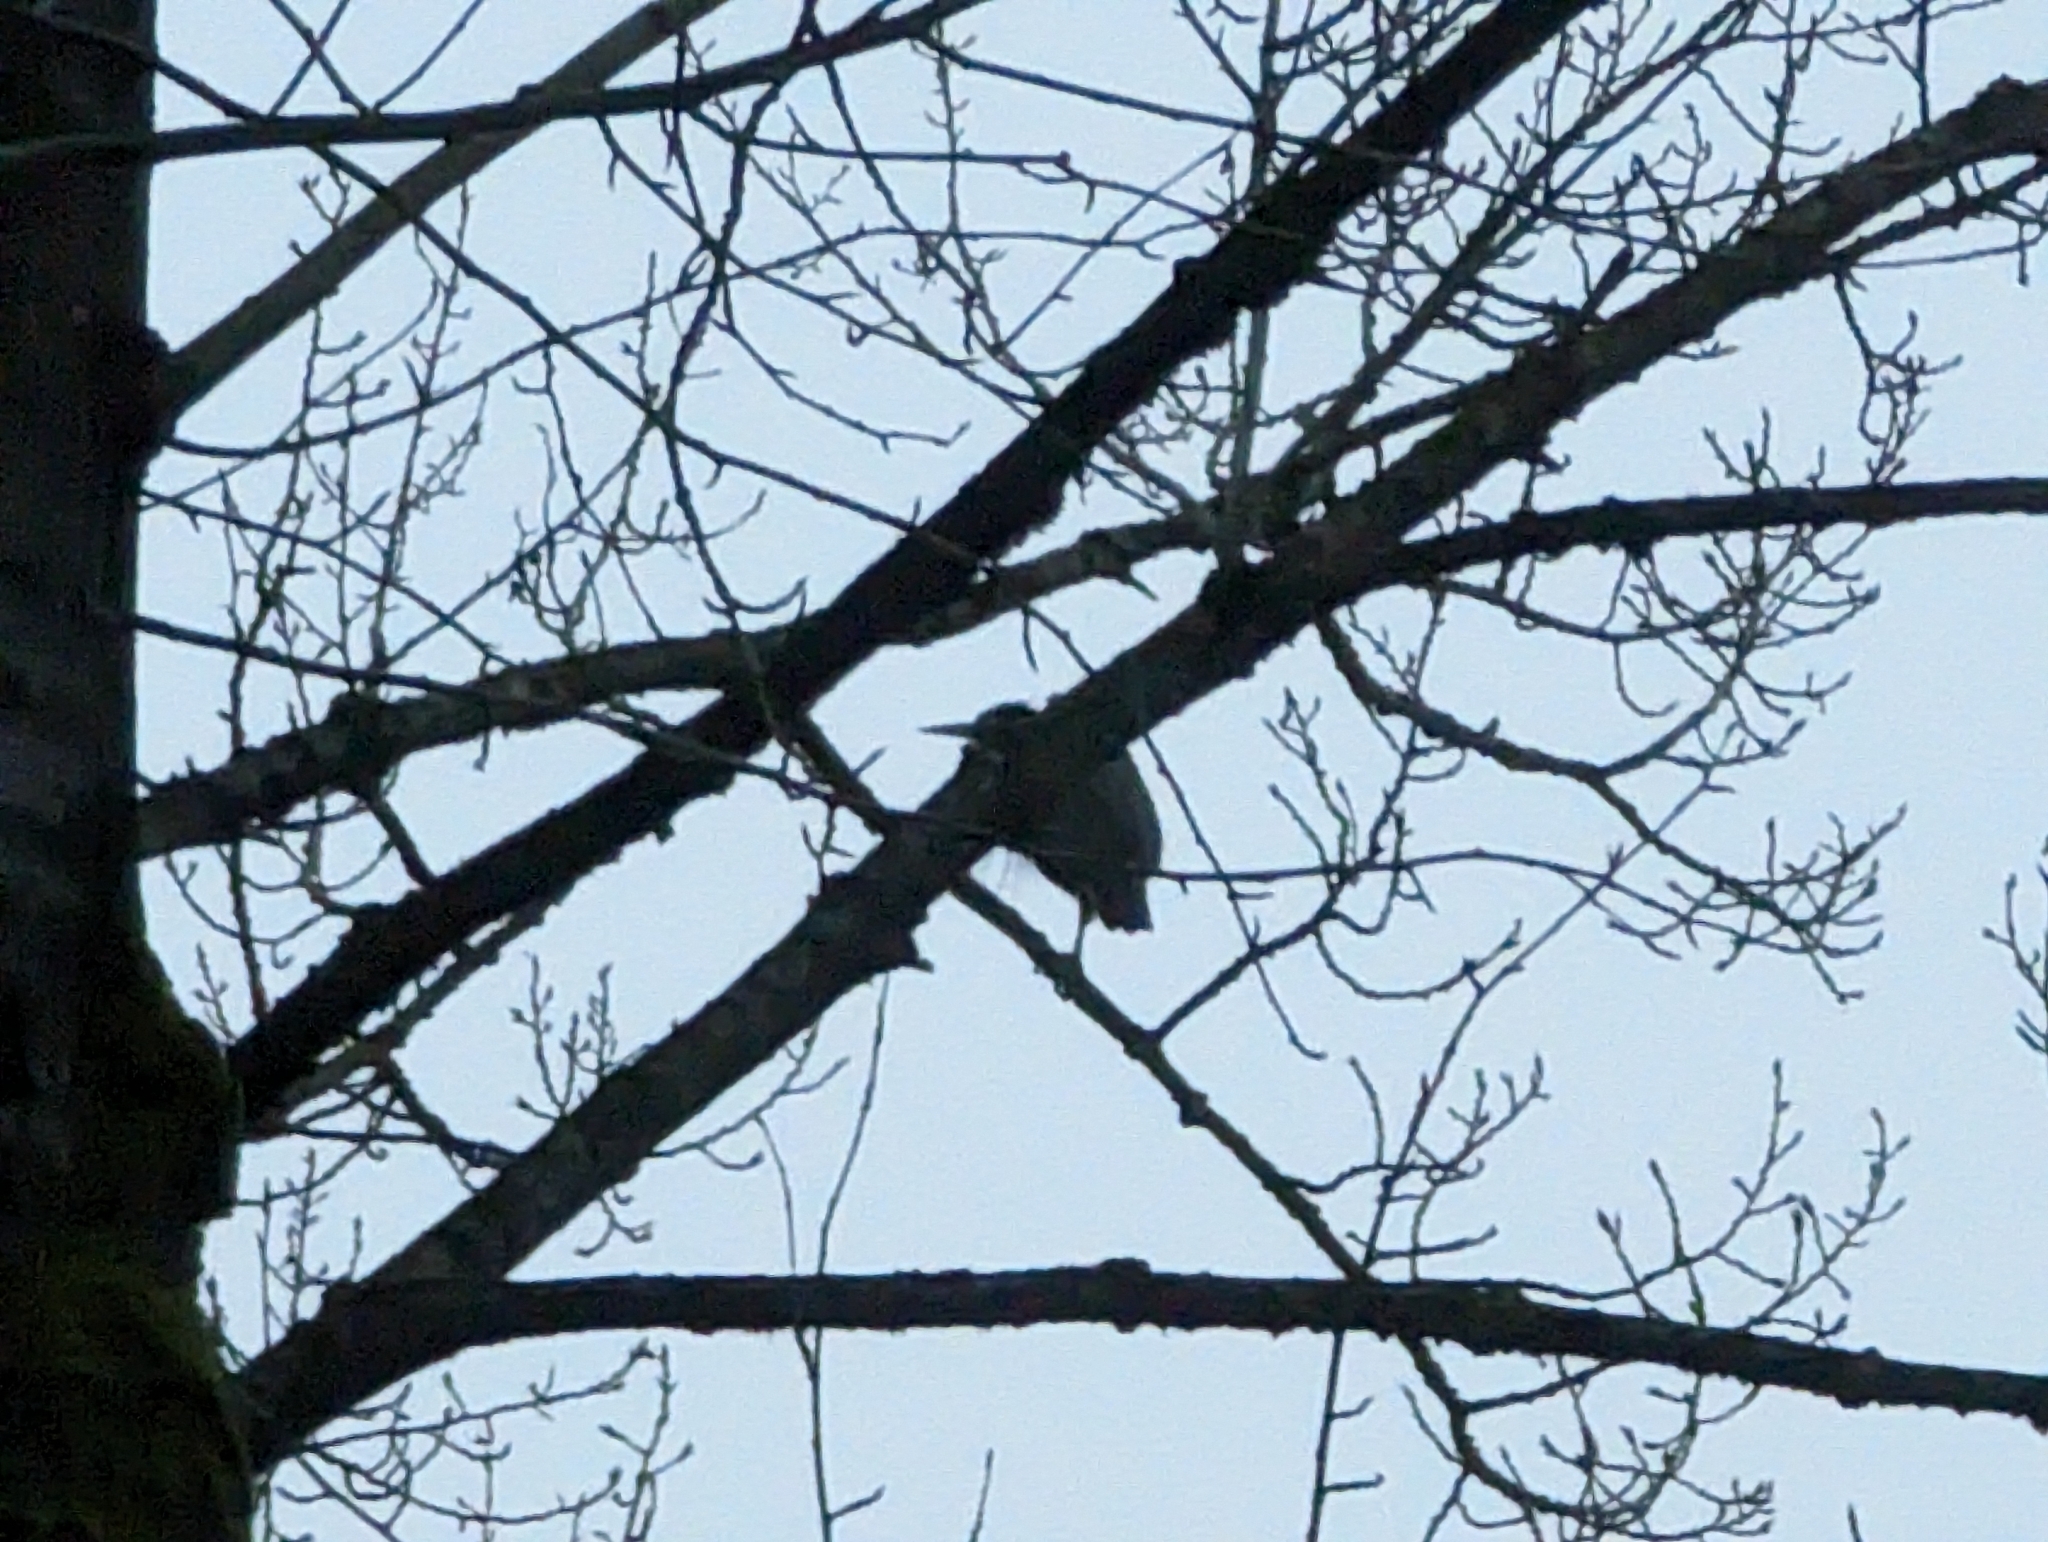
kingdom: Animalia
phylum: Chordata
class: Aves
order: Pelecaniformes
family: Ardeidae
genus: Ardea
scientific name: Ardea herodias
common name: Great blue heron
